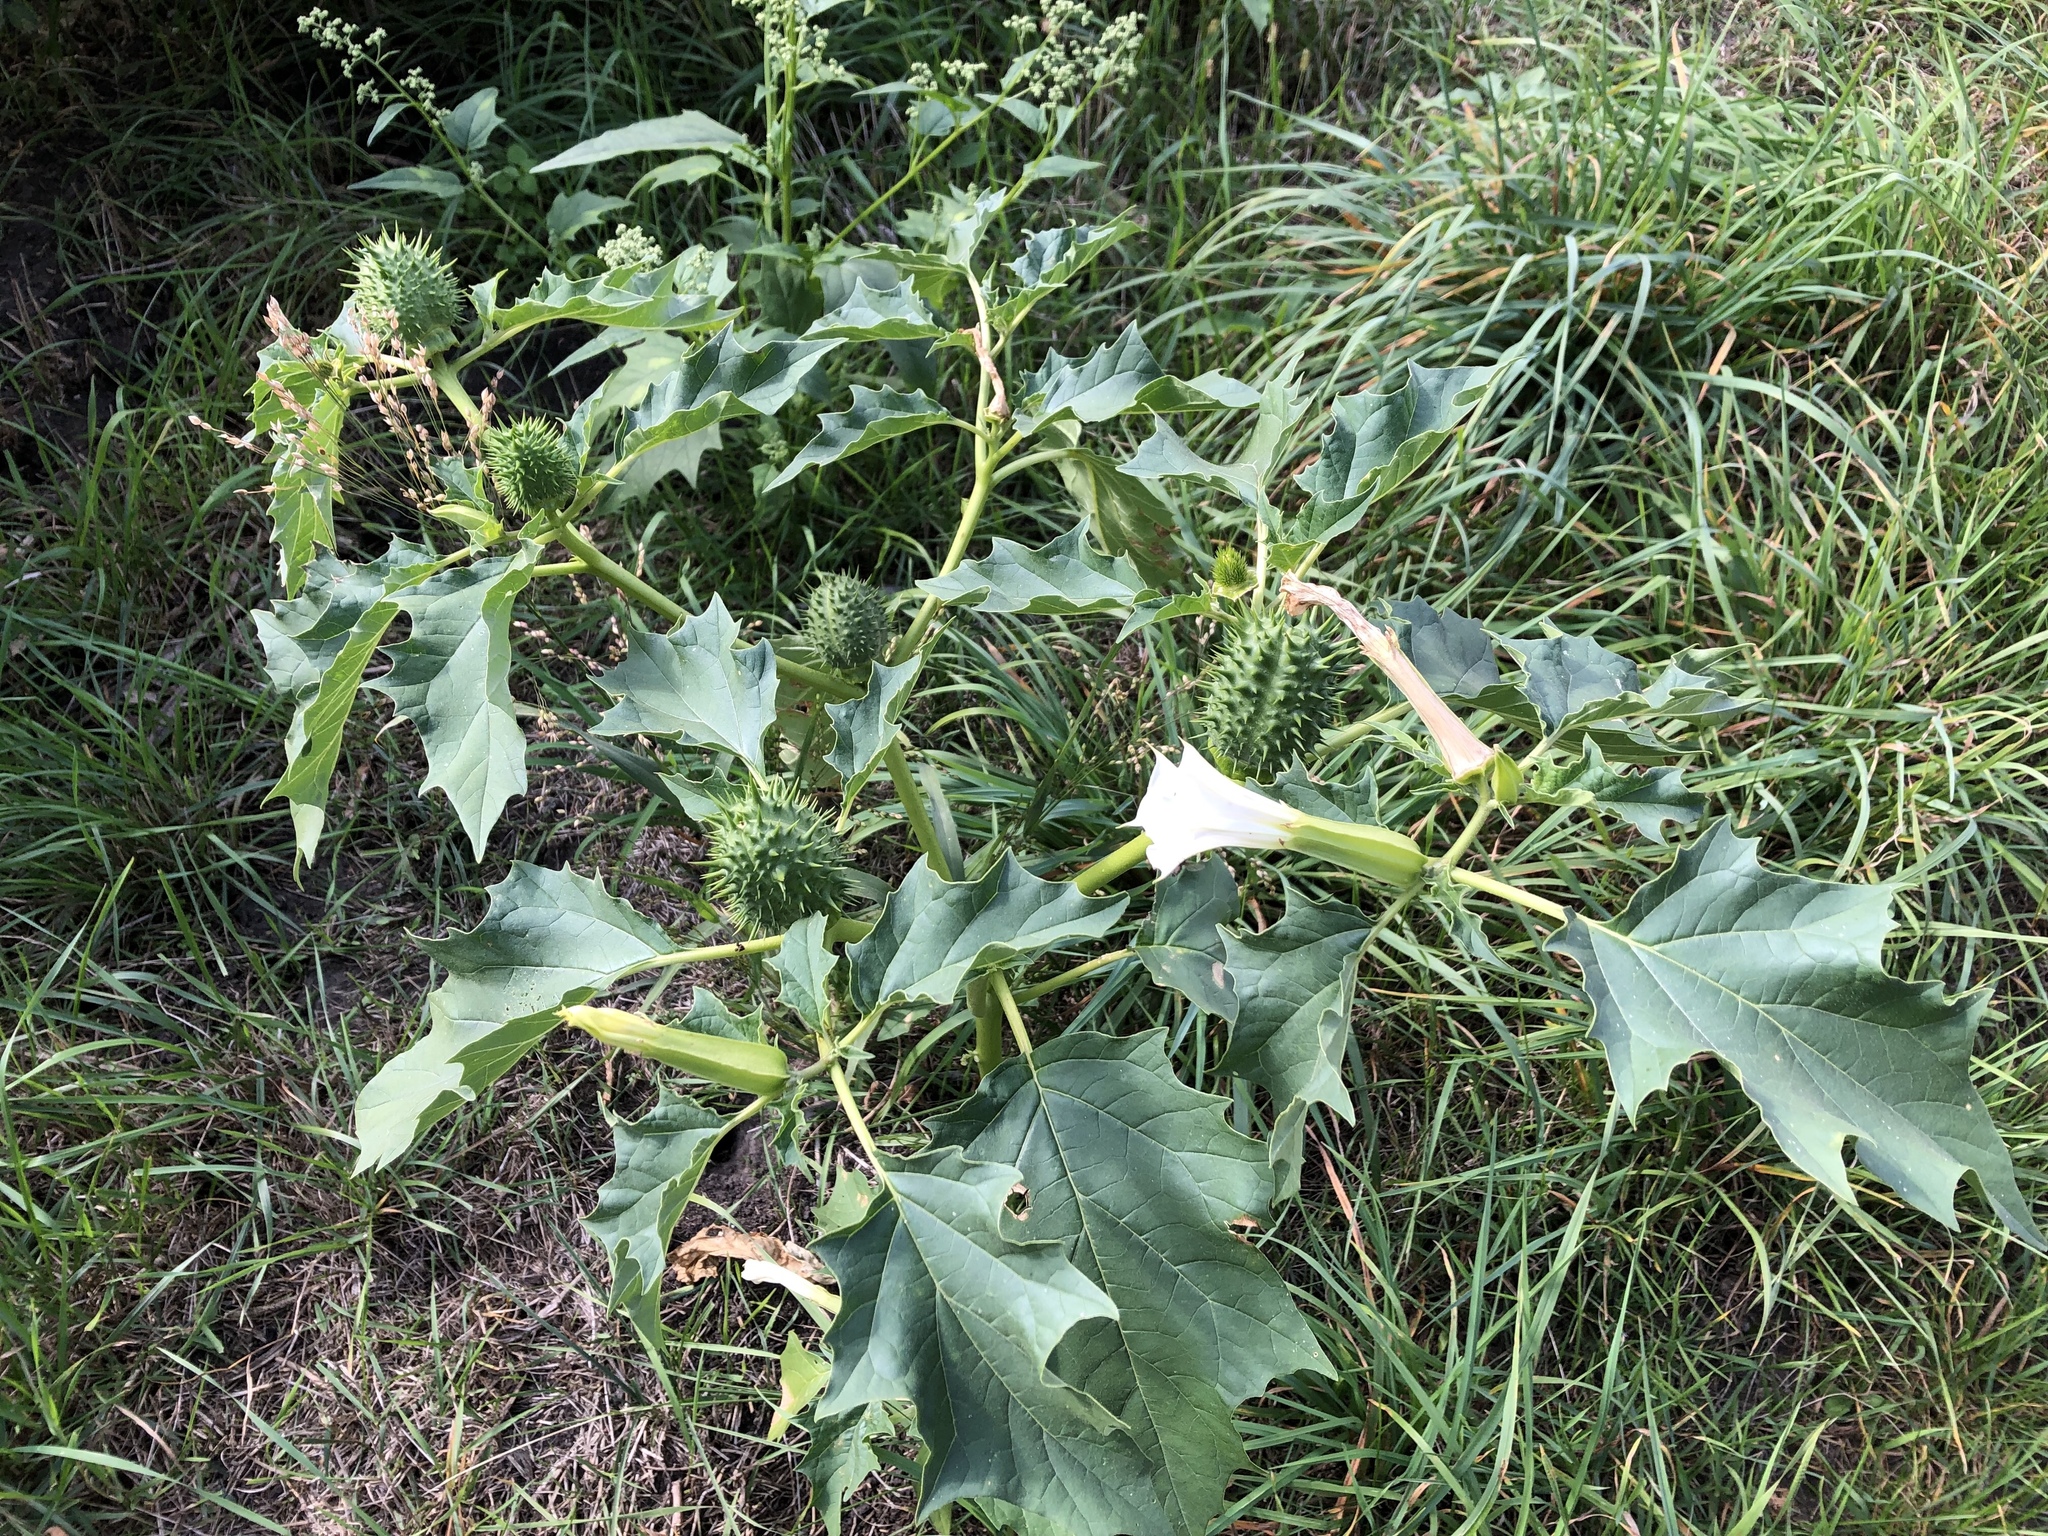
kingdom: Plantae
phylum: Tracheophyta
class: Magnoliopsida
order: Solanales
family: Solanaceae
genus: Datura
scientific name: Datura stramonium
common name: Thorn-apple
